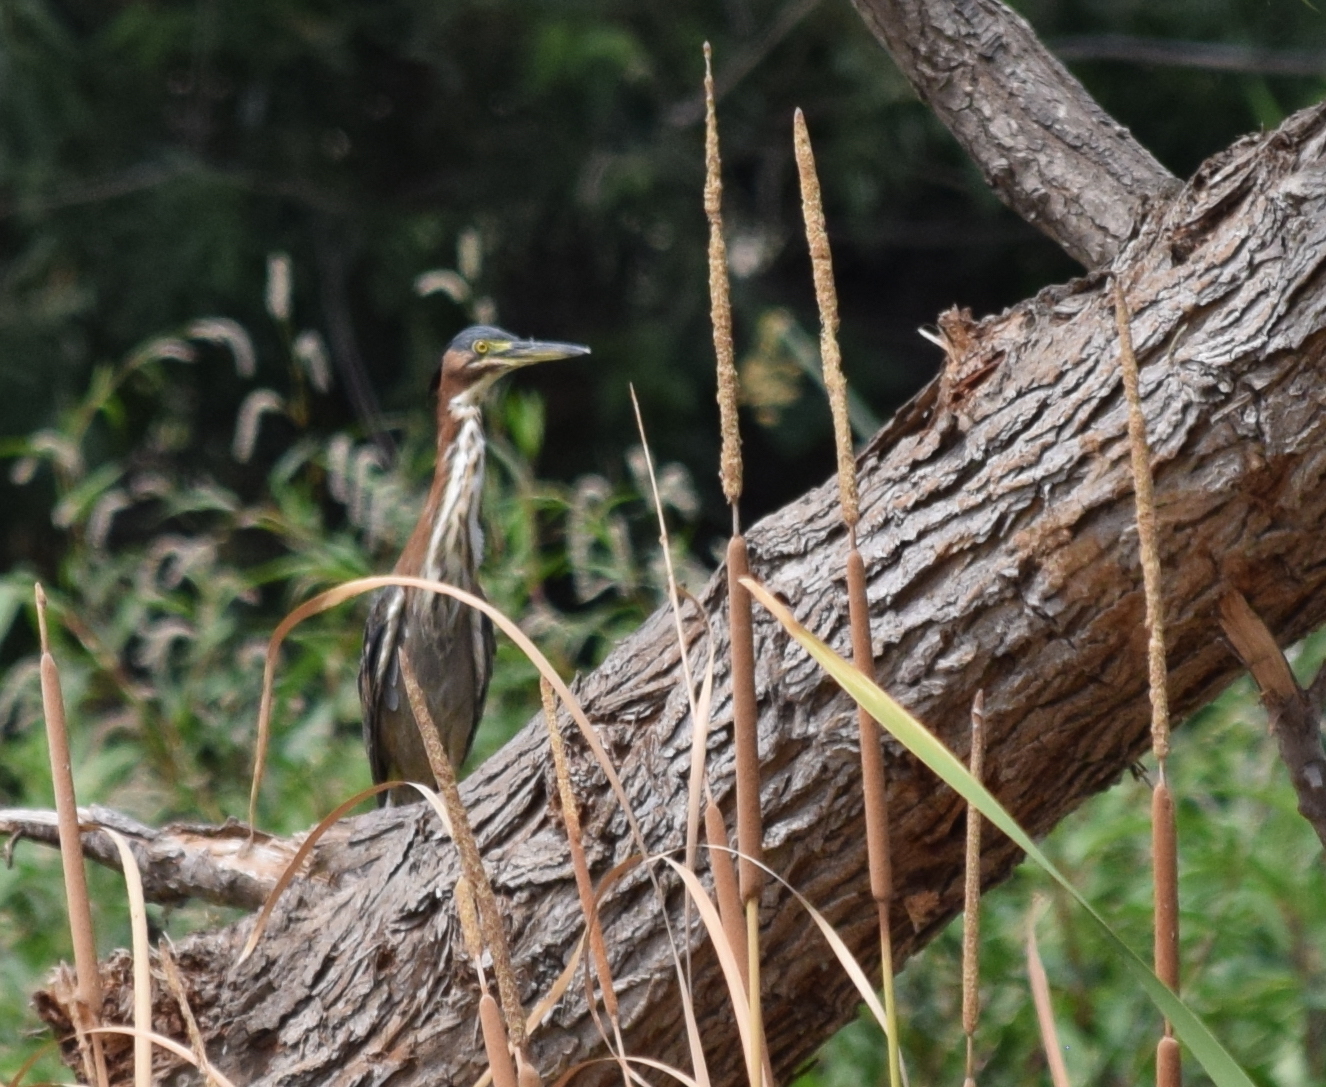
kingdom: Animalia
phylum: Chordata
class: Aves
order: Pelecaniformes
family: Ardeidae
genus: Butorides
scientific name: Butorides virescens
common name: Green heron
